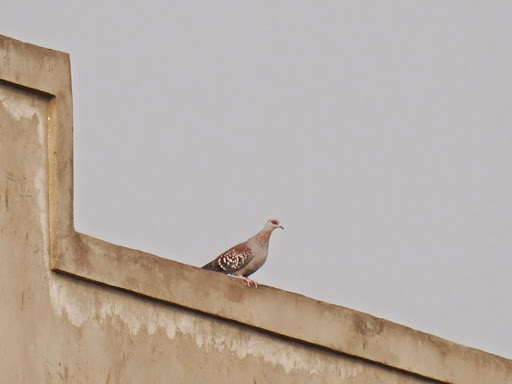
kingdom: Animalia
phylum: Chordata
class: Aves
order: Columbiformes
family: Columbidae
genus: Columba
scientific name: Columba guinea
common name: Speckled pigeon
